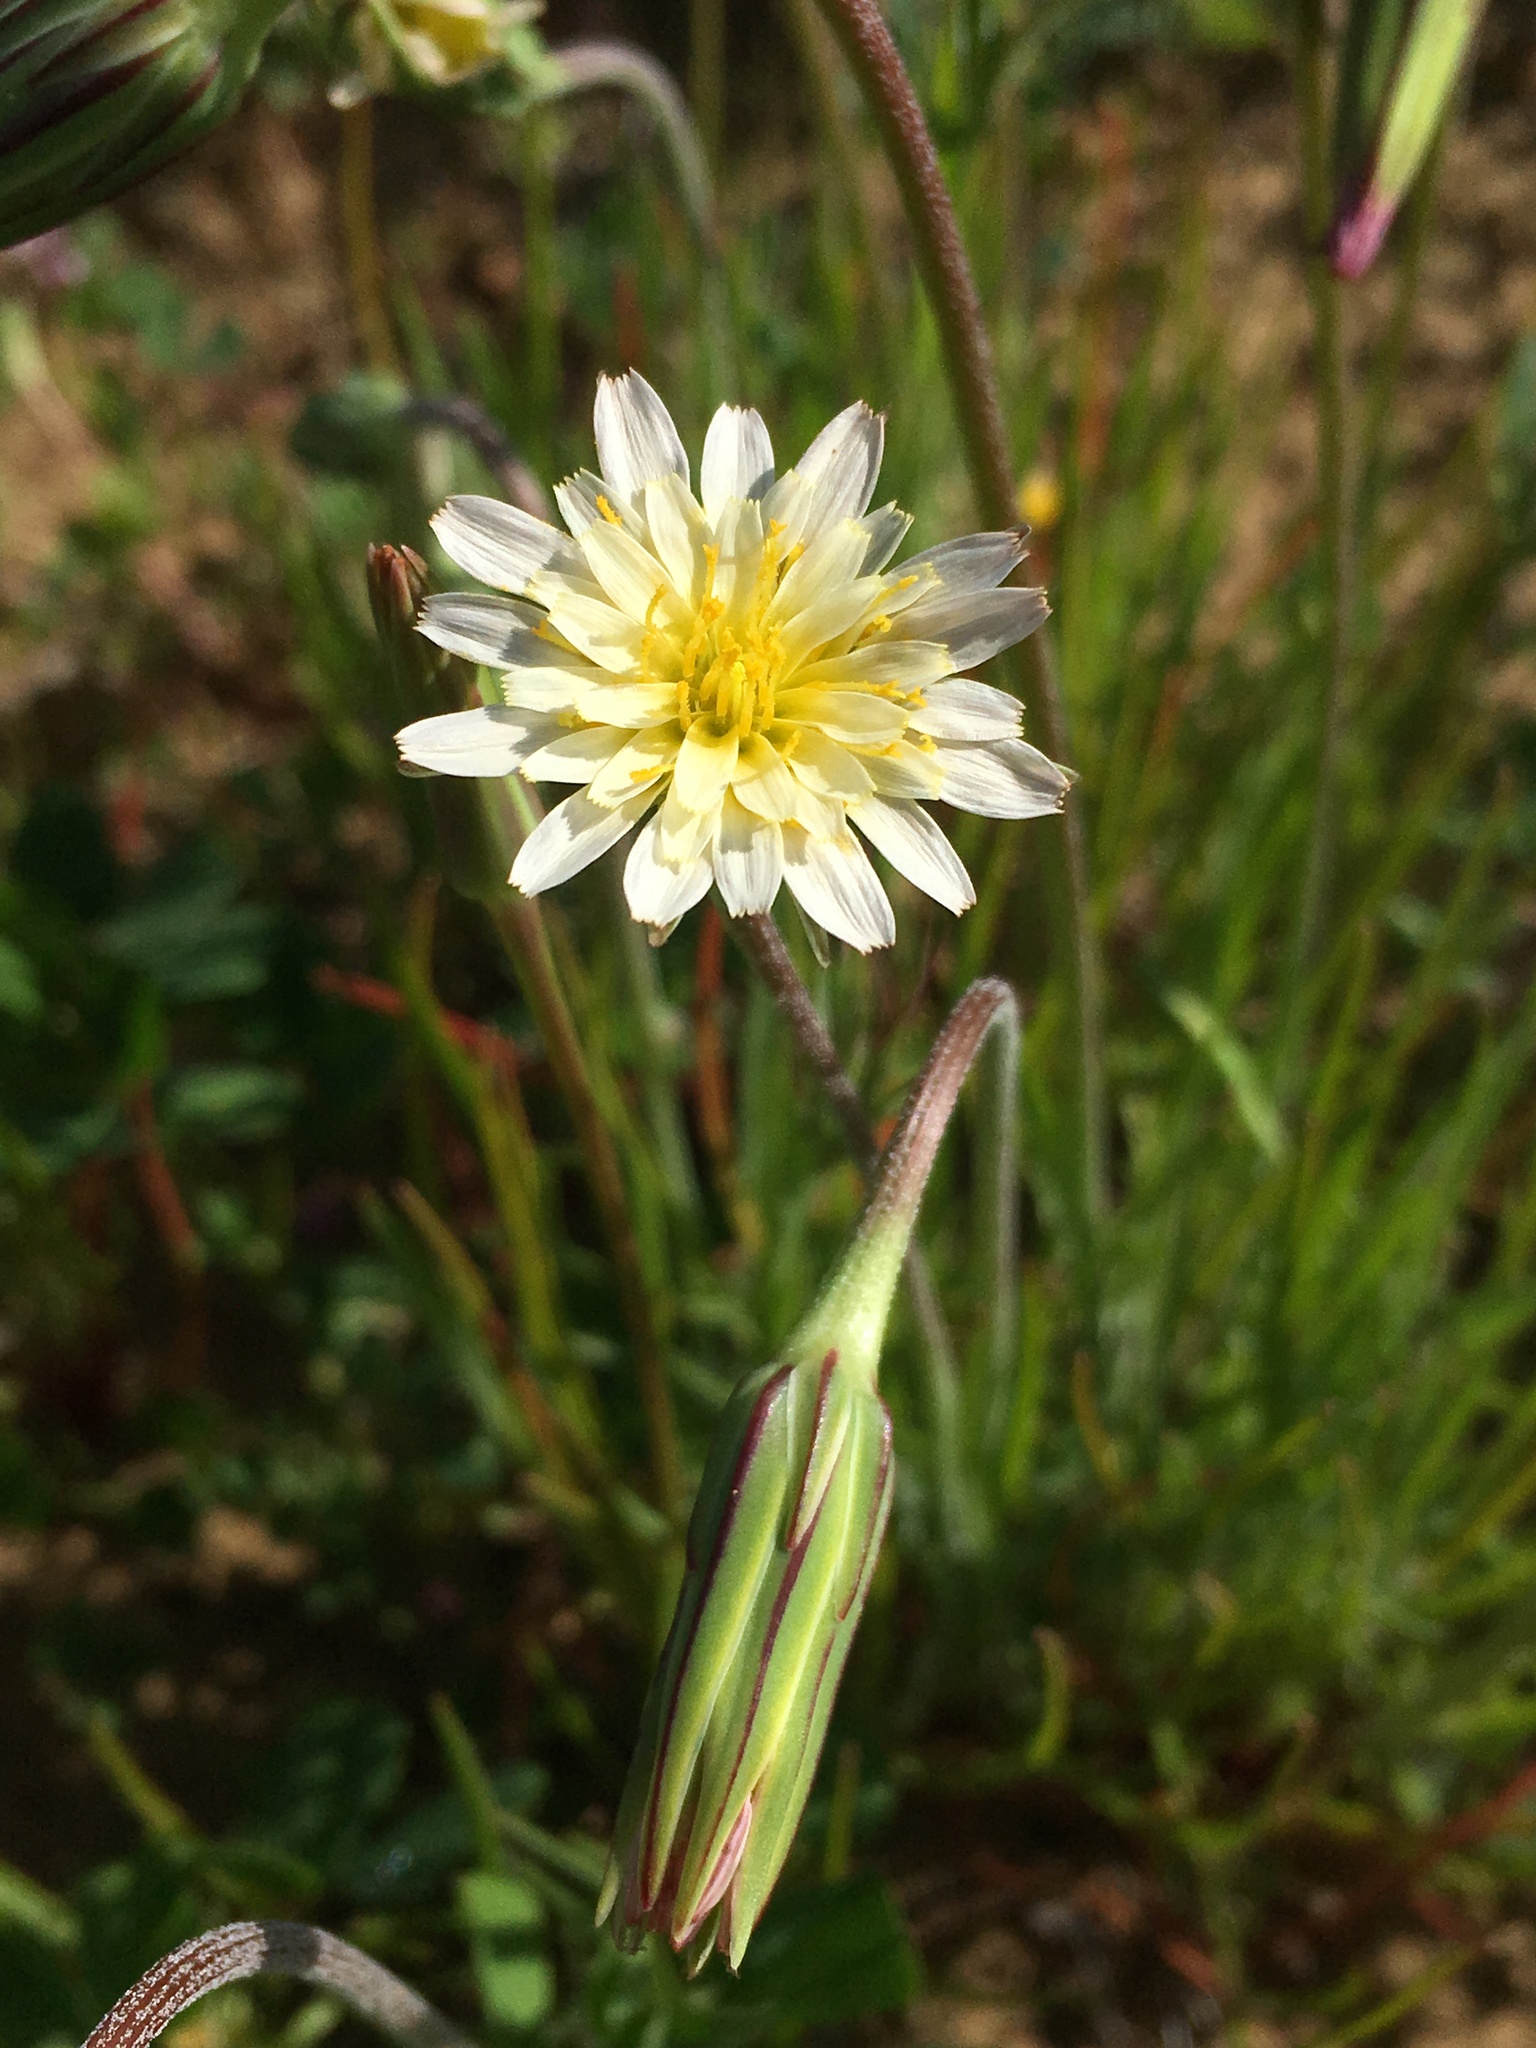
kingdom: Plantae
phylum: Tracheophyta
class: Magnoliopsida
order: Asterales
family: Asteraceae
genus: Microseris
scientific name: Microseris heterocarpa
